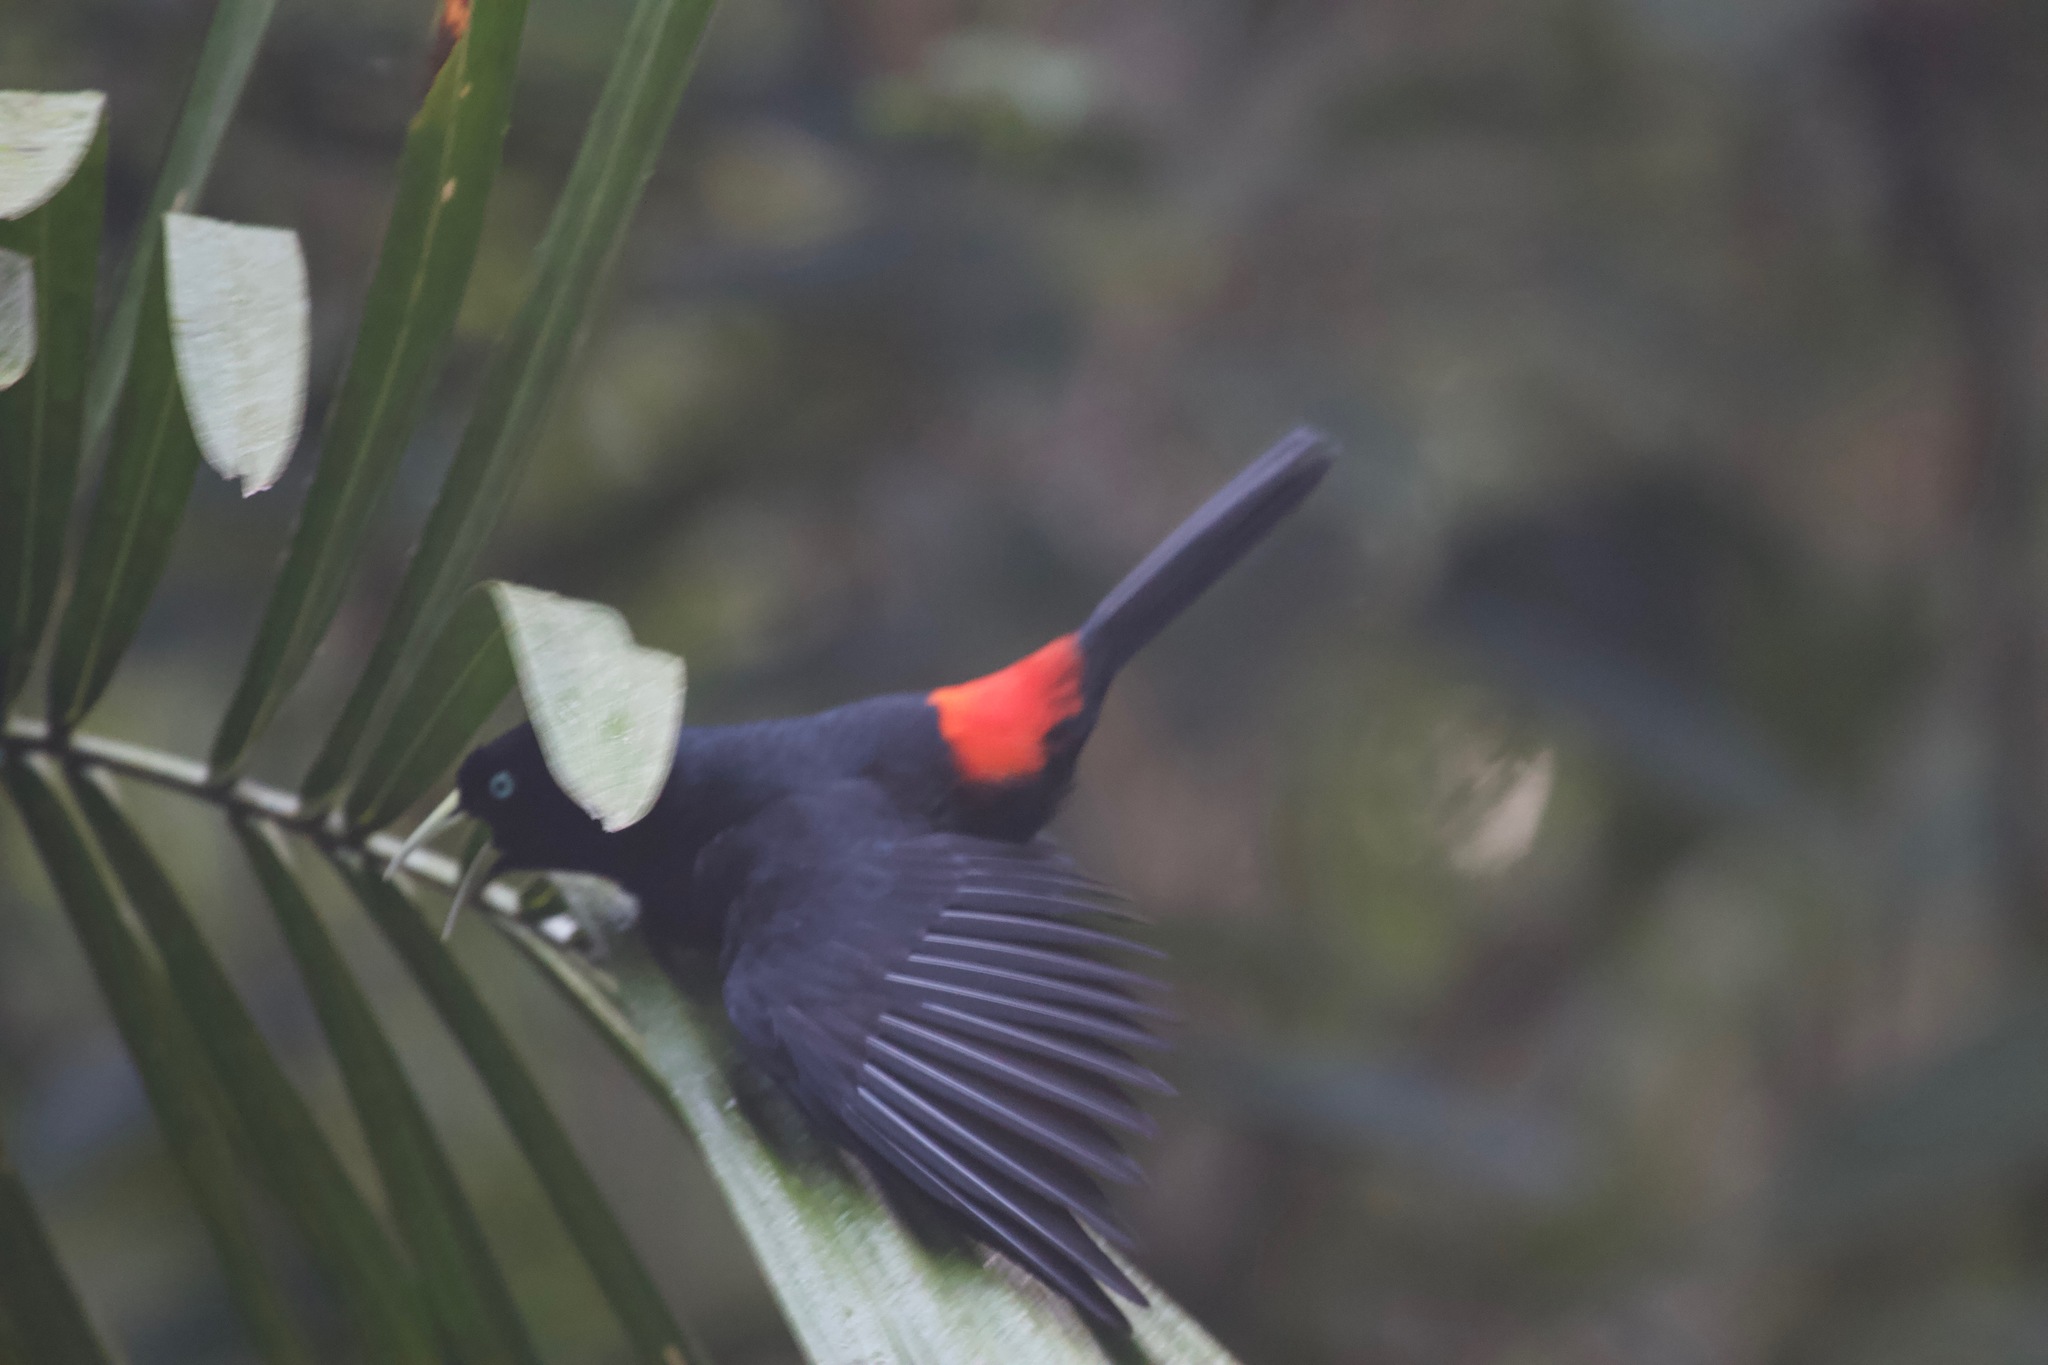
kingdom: Animalia
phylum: Chordata
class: Aves
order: Passeriformes
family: Icteridae
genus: Cacicus
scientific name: Cacicus uropygialis
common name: Scarlet-rumped cacique
